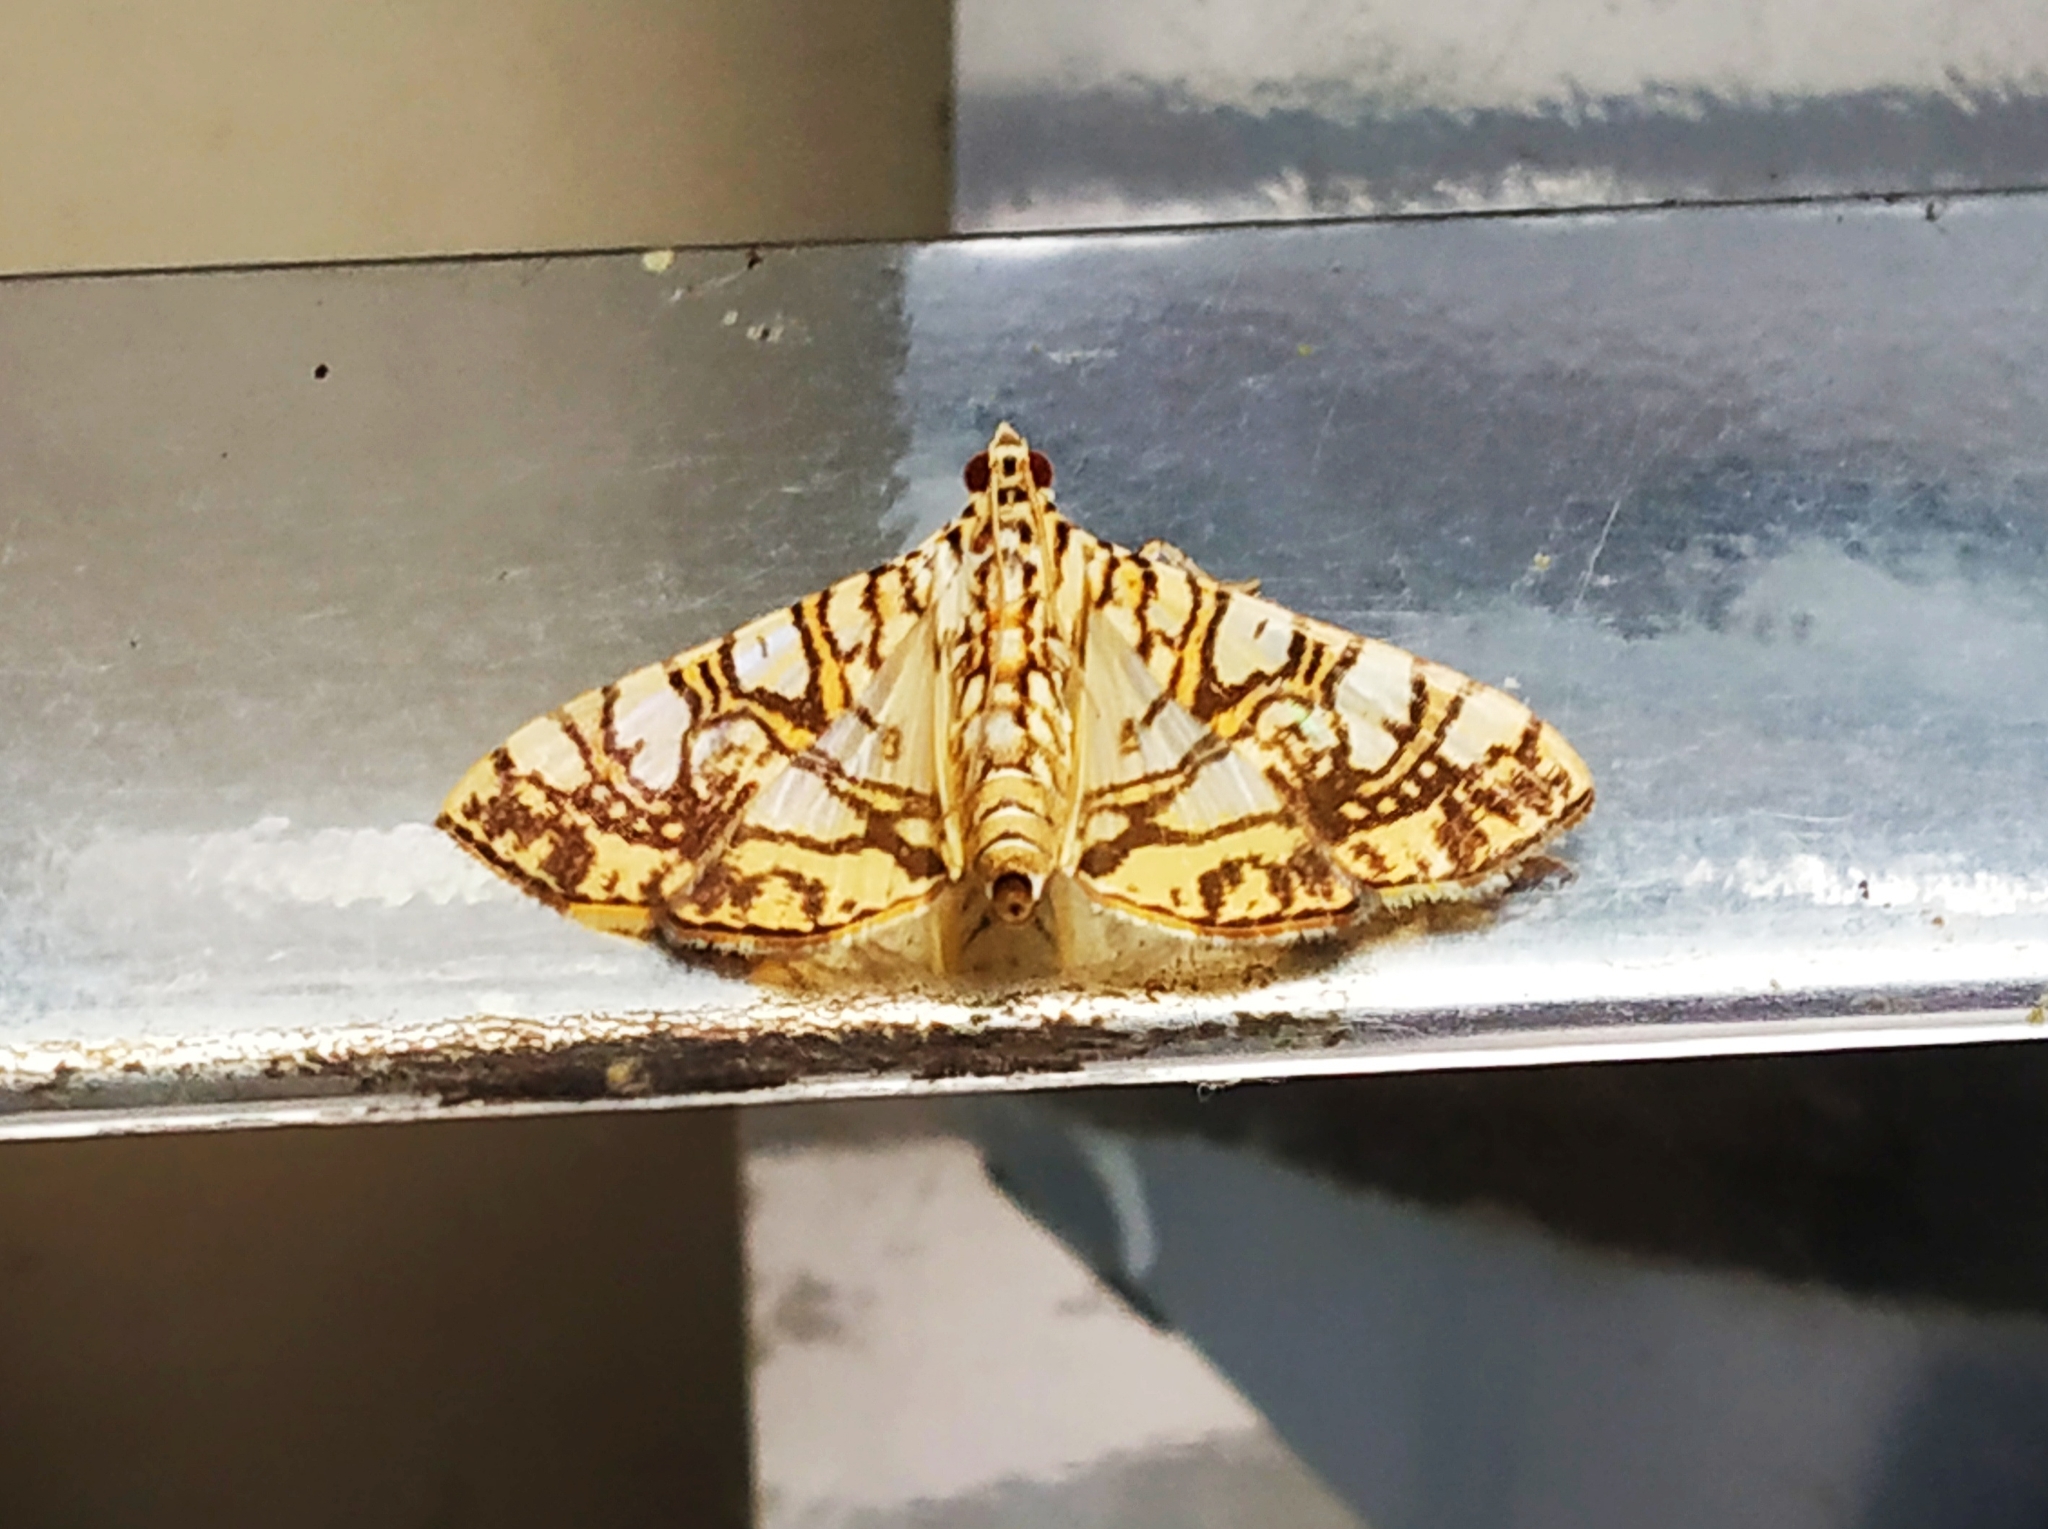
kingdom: Animalia
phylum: Arthropoda
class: Insecta
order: Lepidoptera
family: Crambidae
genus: Glyphodes
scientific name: Glyphodes caesalis
